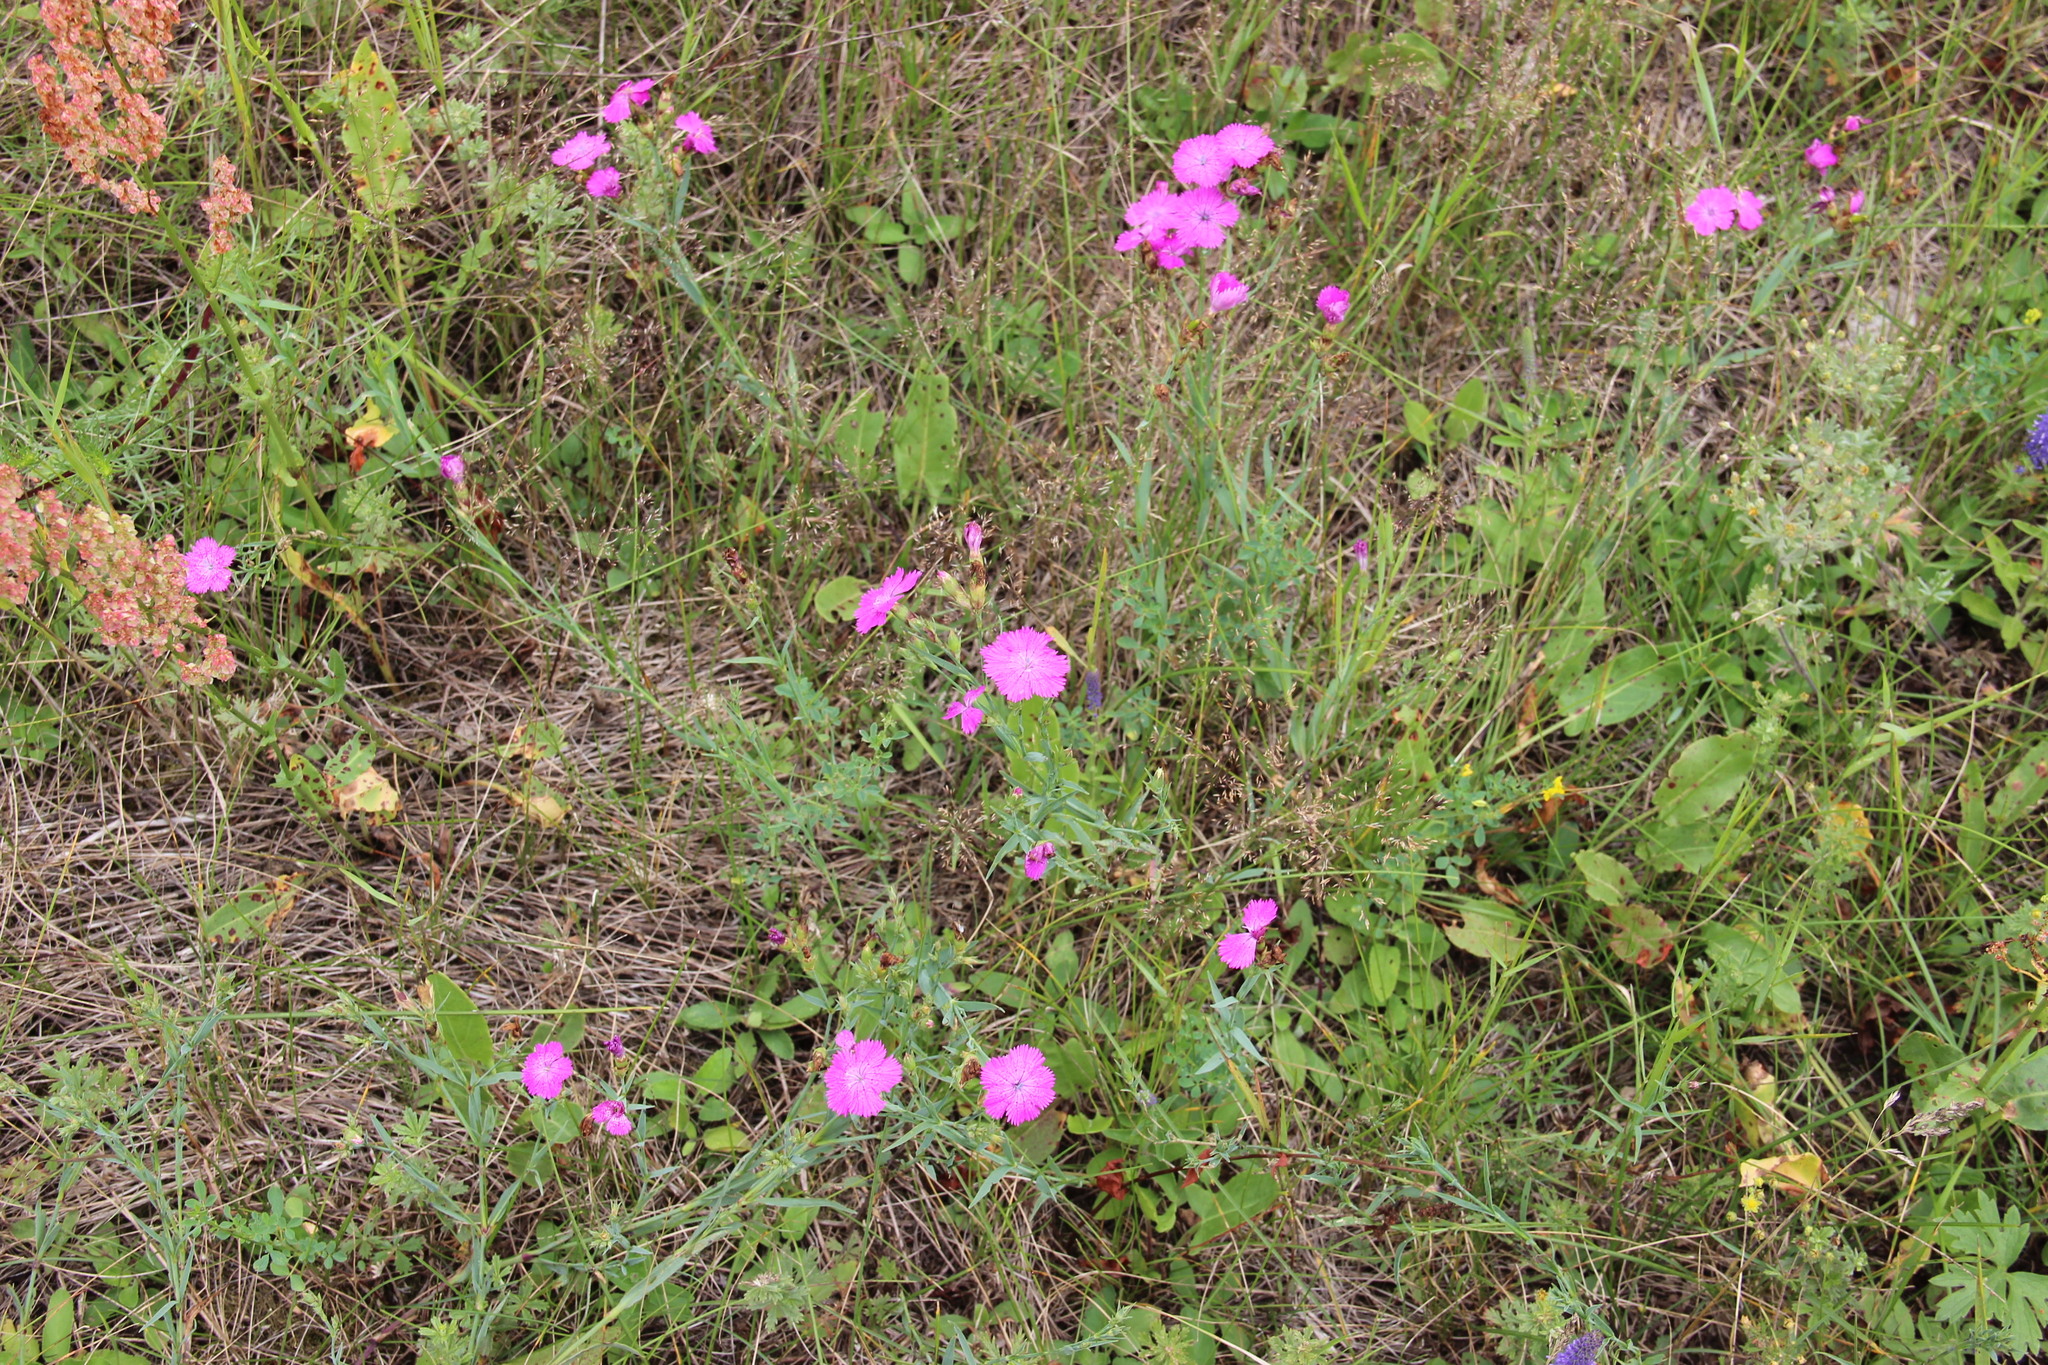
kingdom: Plantae
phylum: Tracheophyta
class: Magnoliopsida
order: Caryophyllales
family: Caryophyllaceae
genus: Dianthus
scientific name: Dianthus chinensis
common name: Rainbow pink
